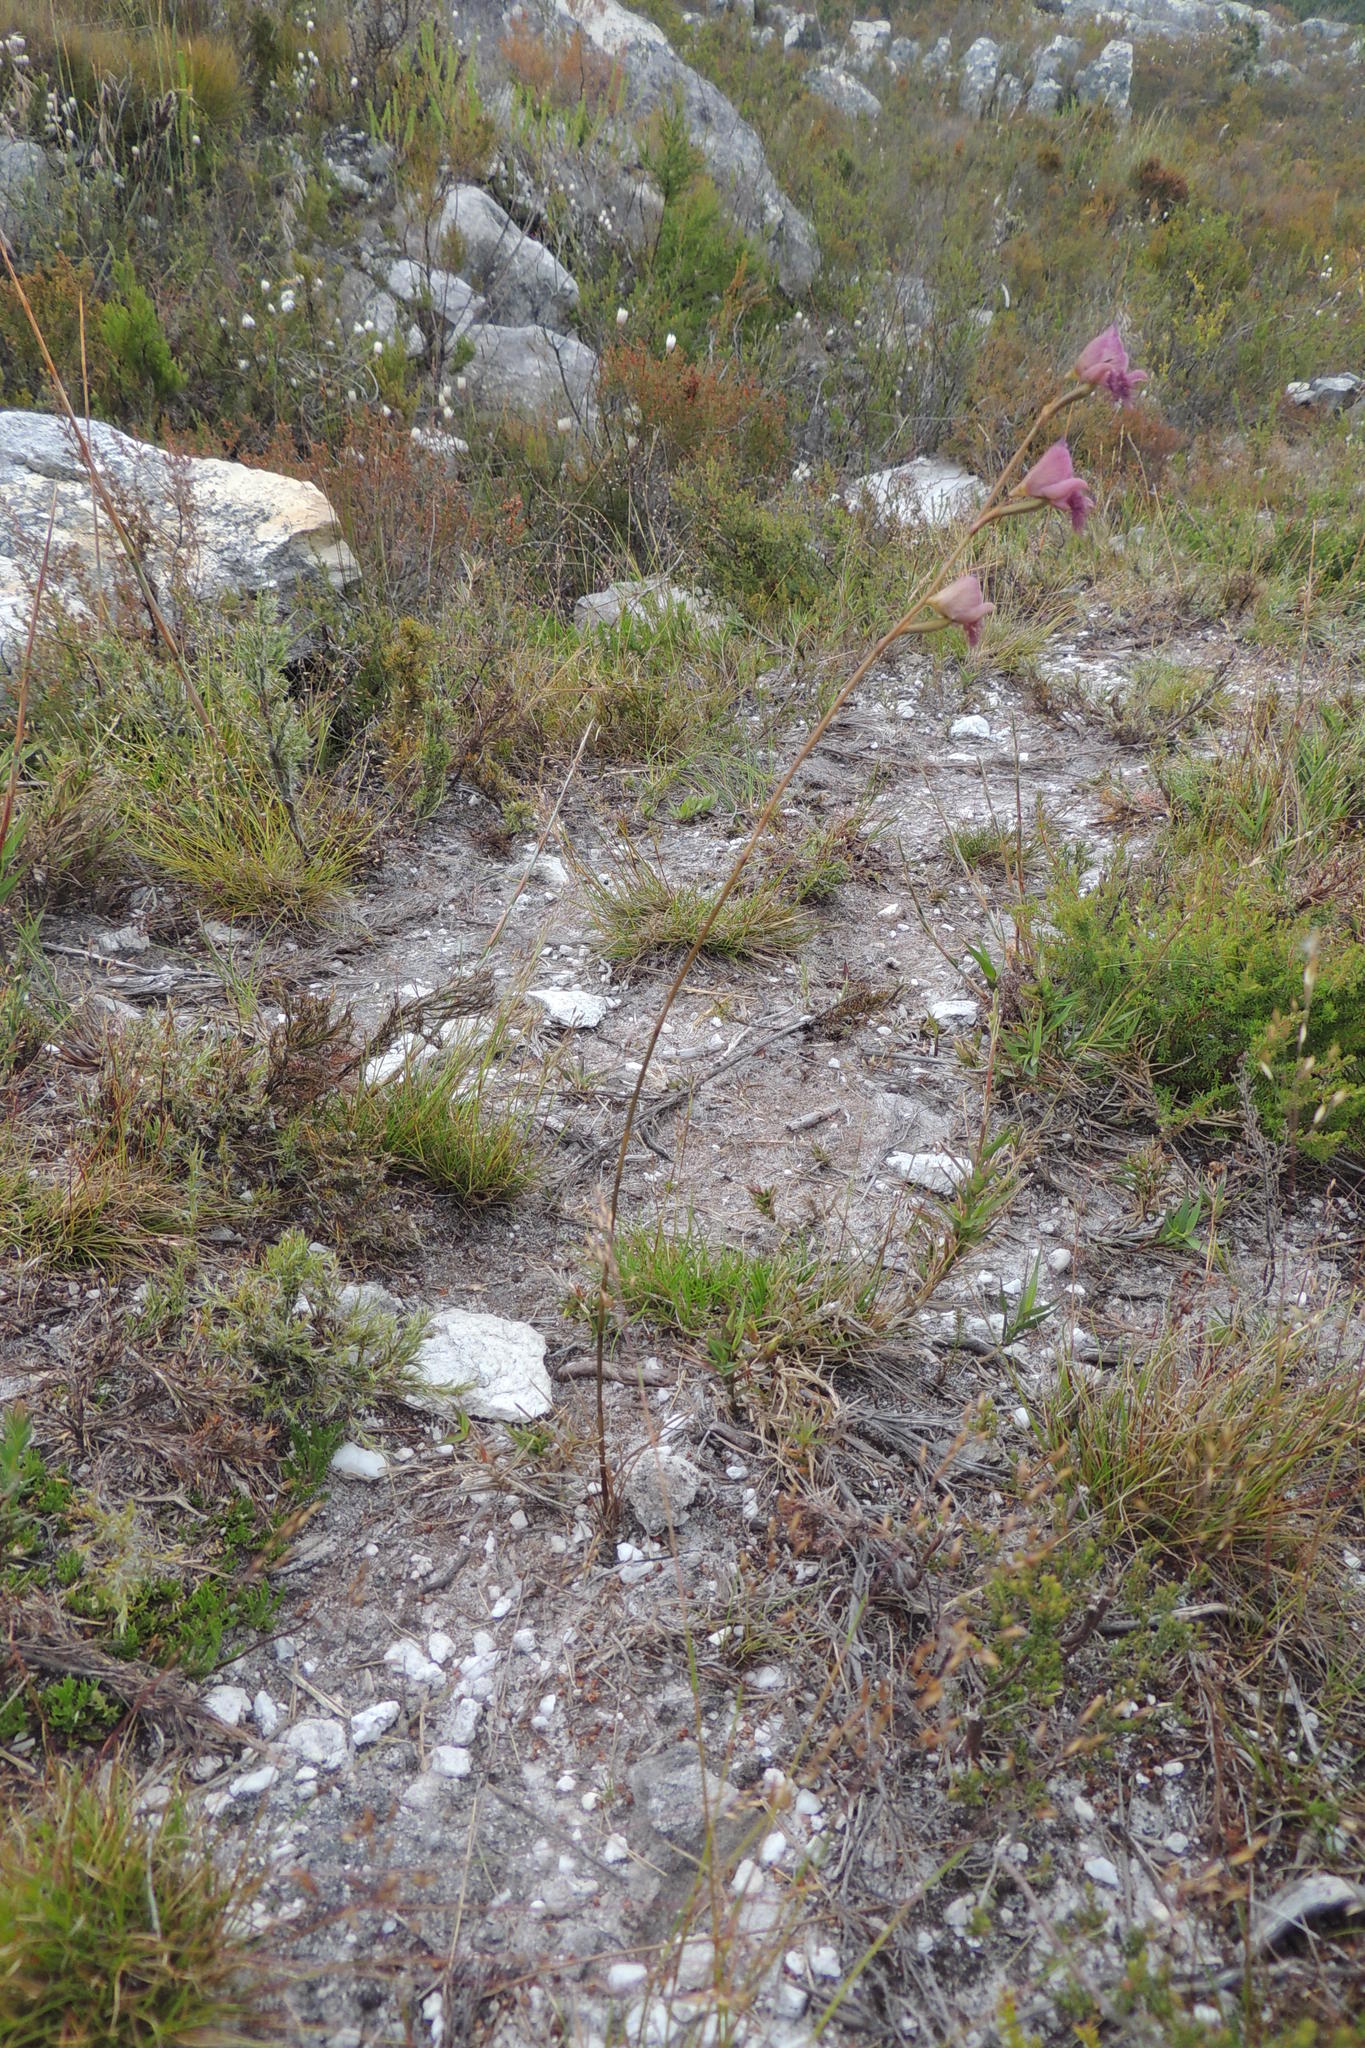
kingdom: Plantae
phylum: Tracheophyta
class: Liliopsida
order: Asparagales
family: Orchidaceae
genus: Disa
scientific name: Disa lugens
